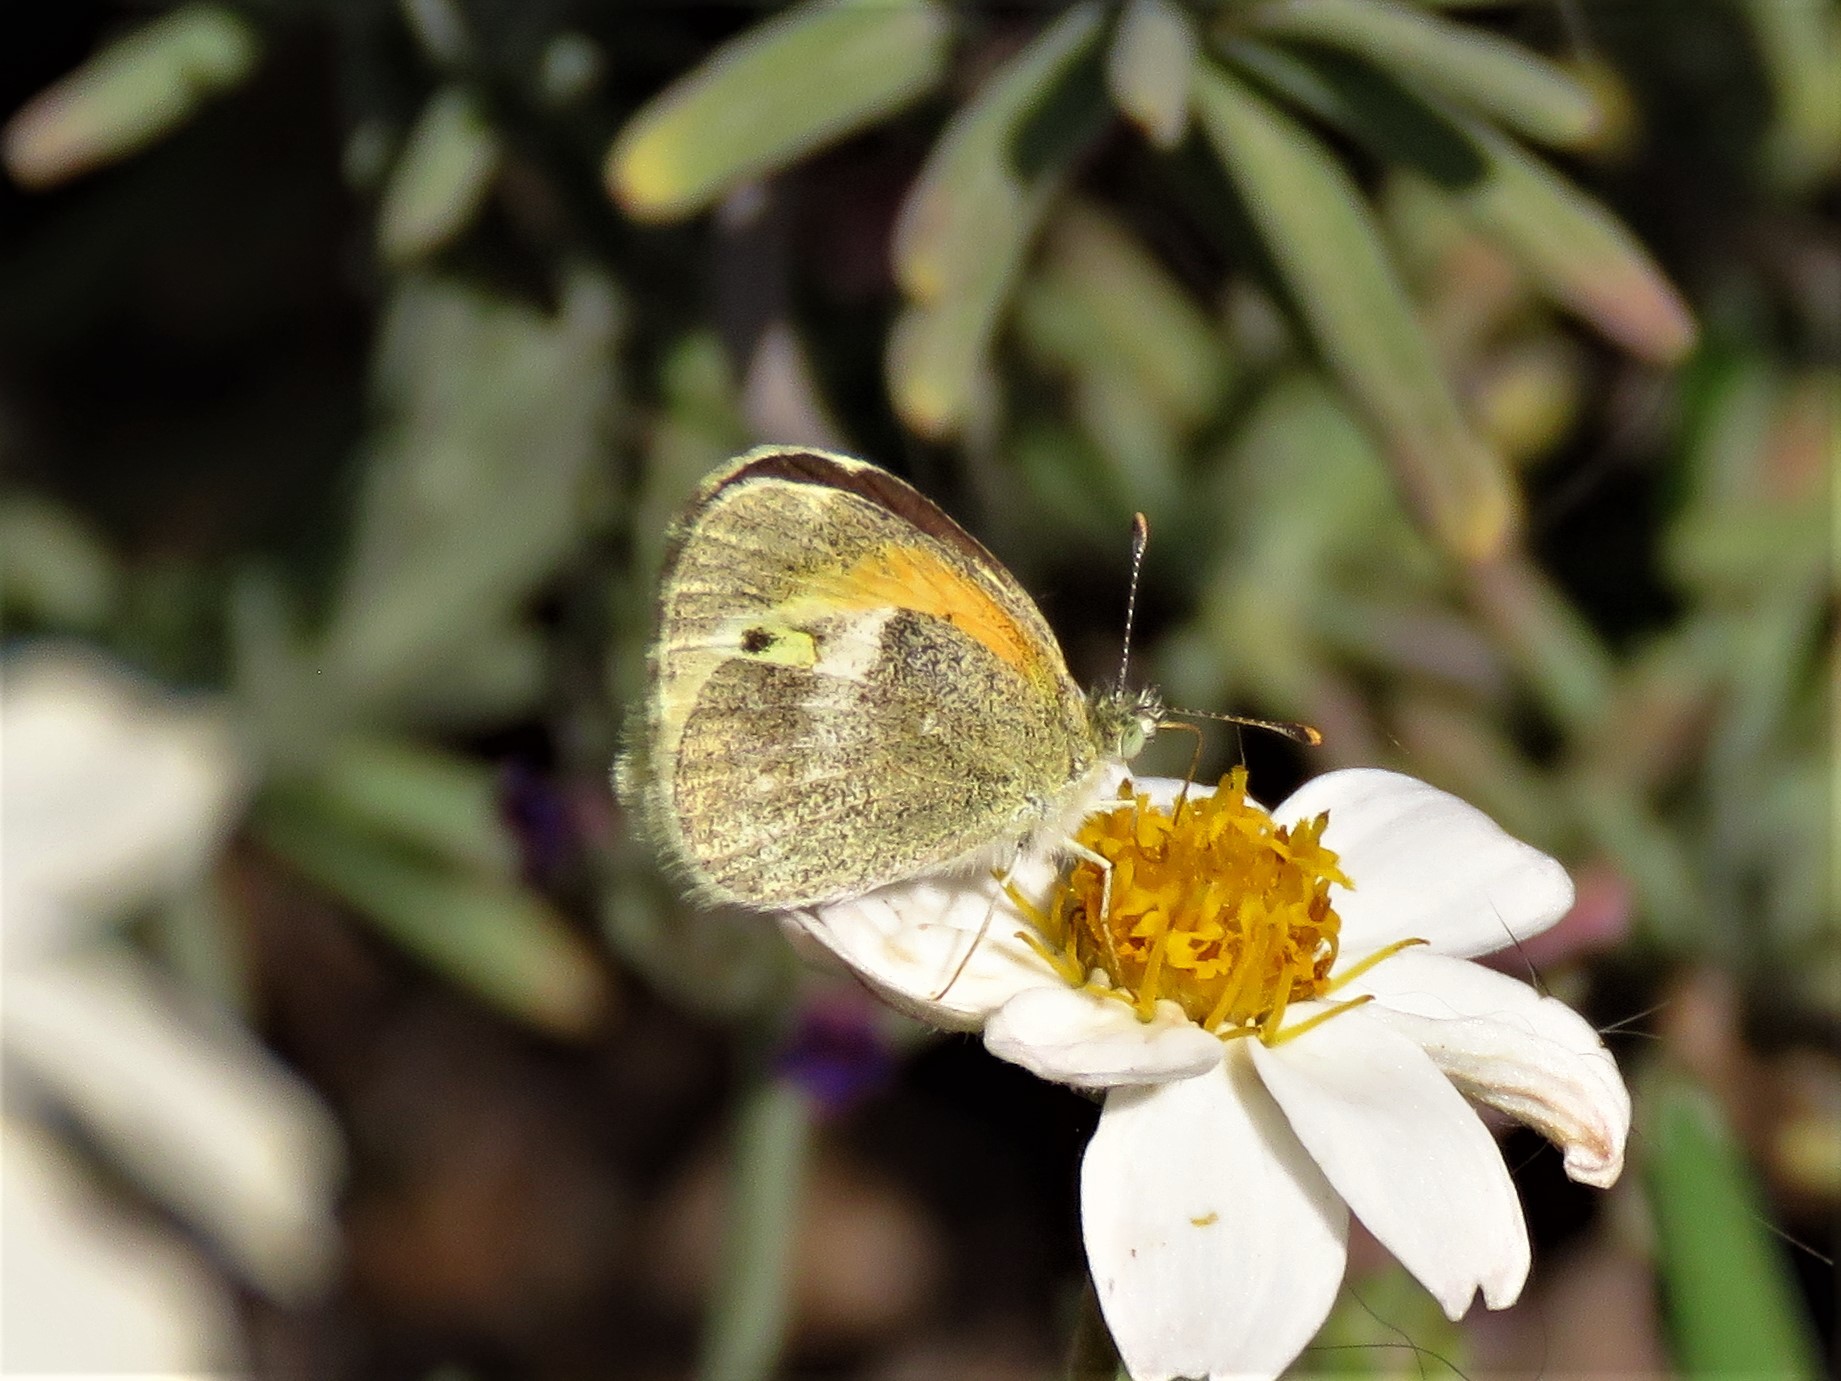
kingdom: Animalia
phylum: Arthropoda
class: Insecta
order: Lepidoptera
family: Pieridae
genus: Nathalis
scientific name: Nathalis iole
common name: Dainty sulphur
